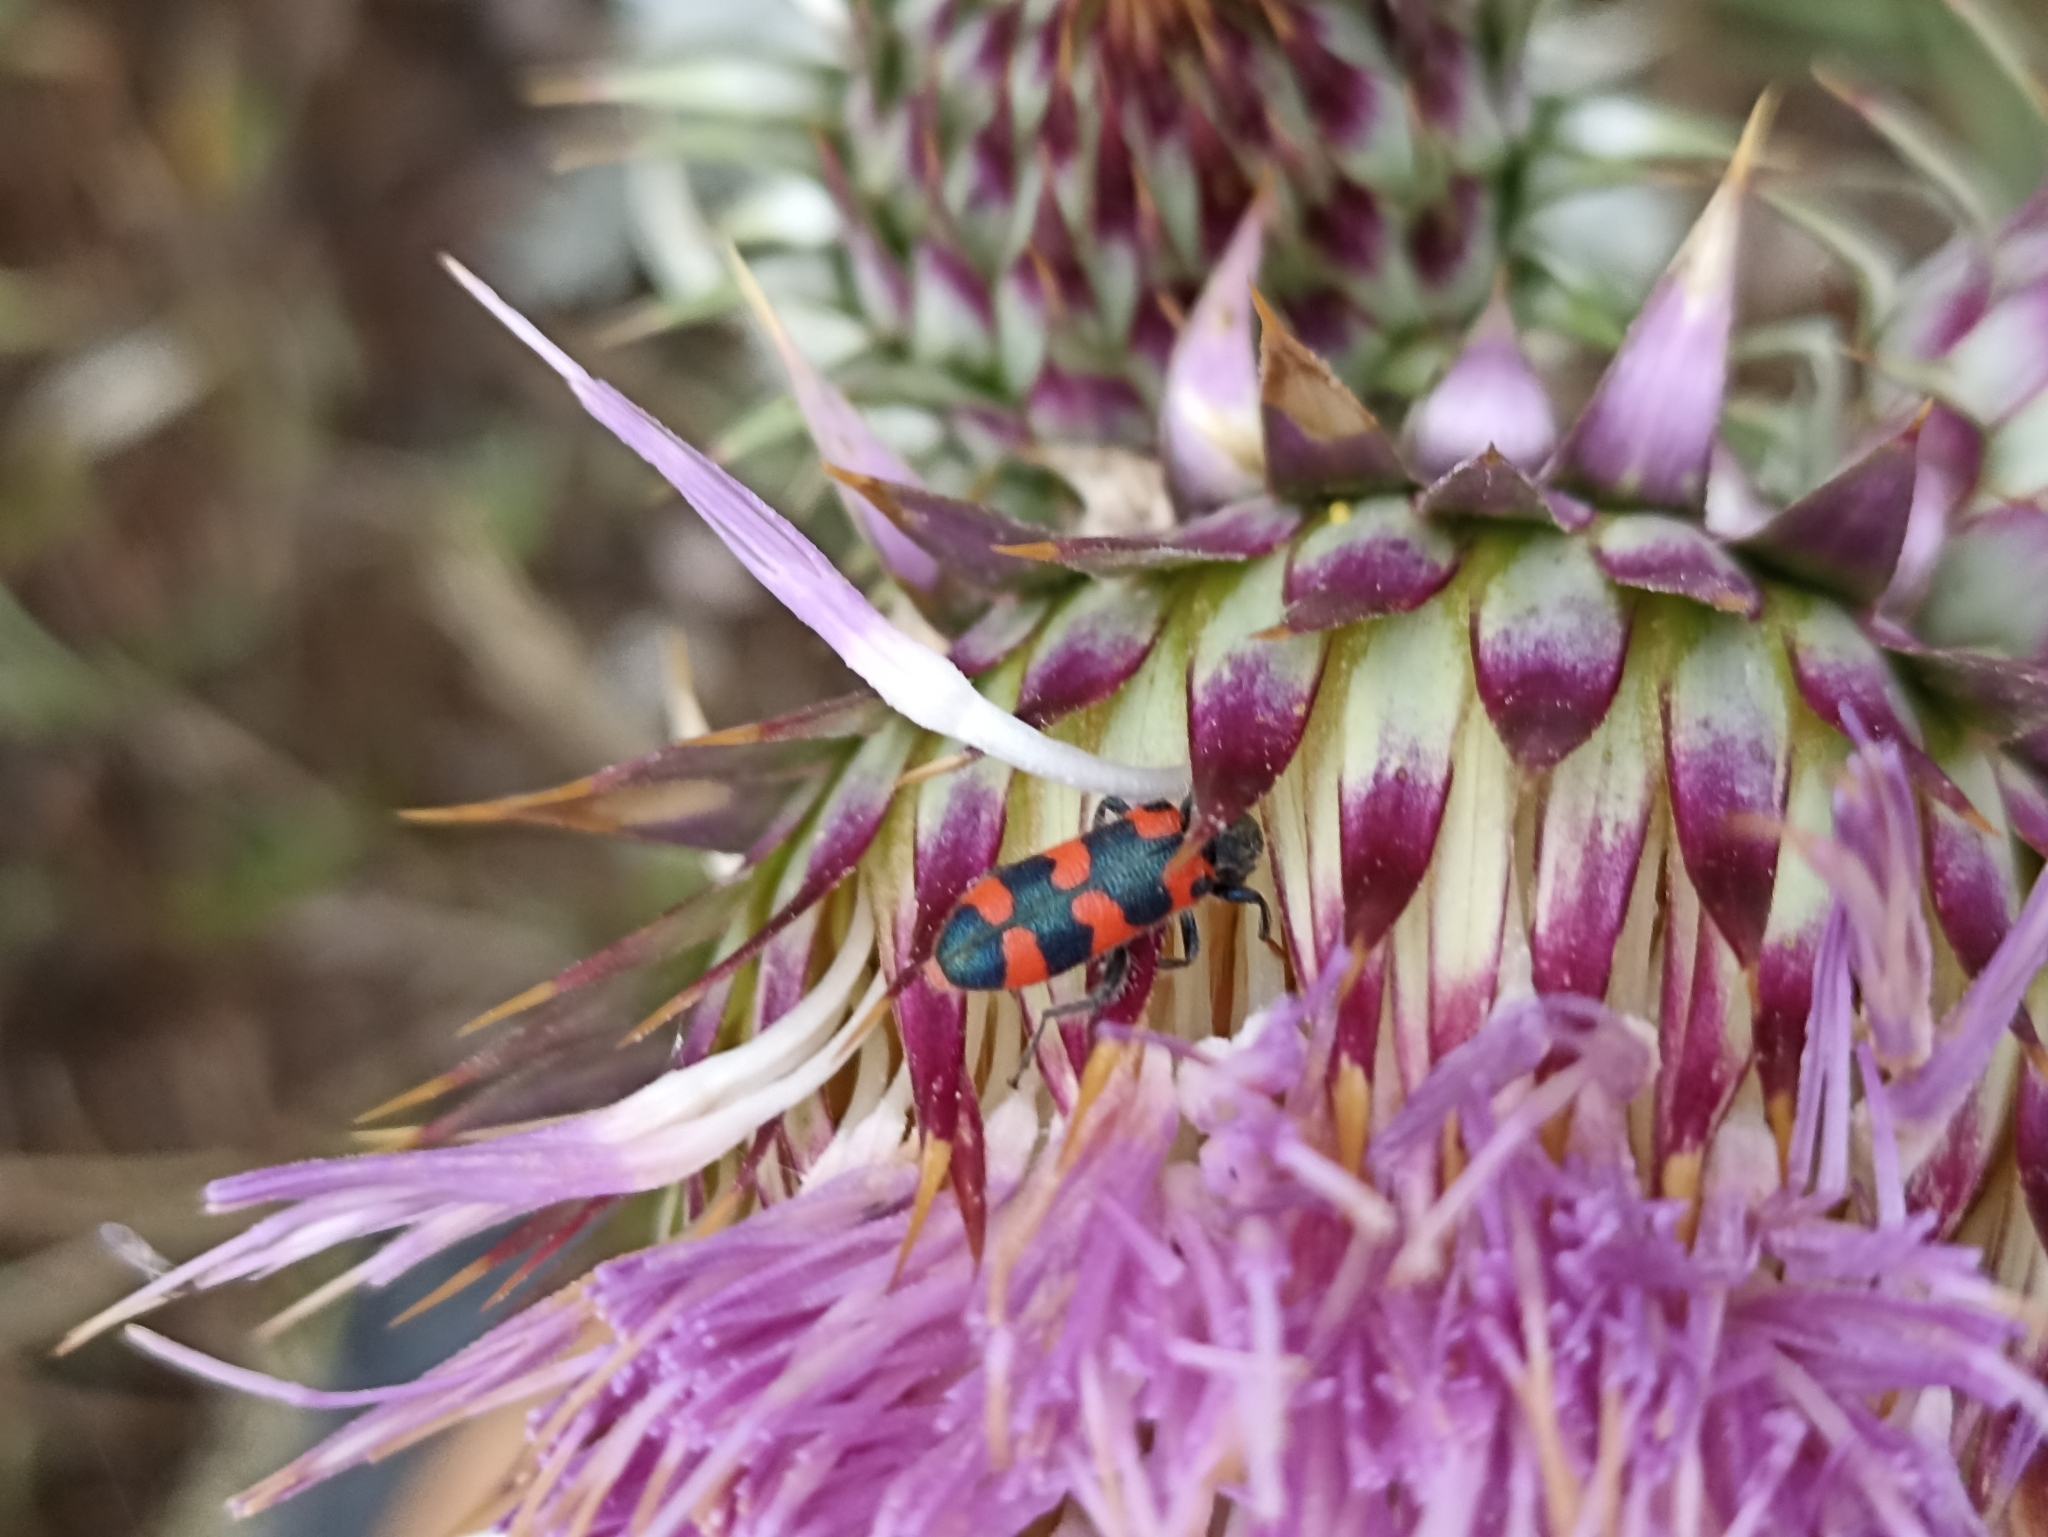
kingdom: Animalia
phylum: Arthropoda
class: Insecta
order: Coleoptera
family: Cleridae
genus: Trichodes
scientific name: Trichodes leucopsideus
